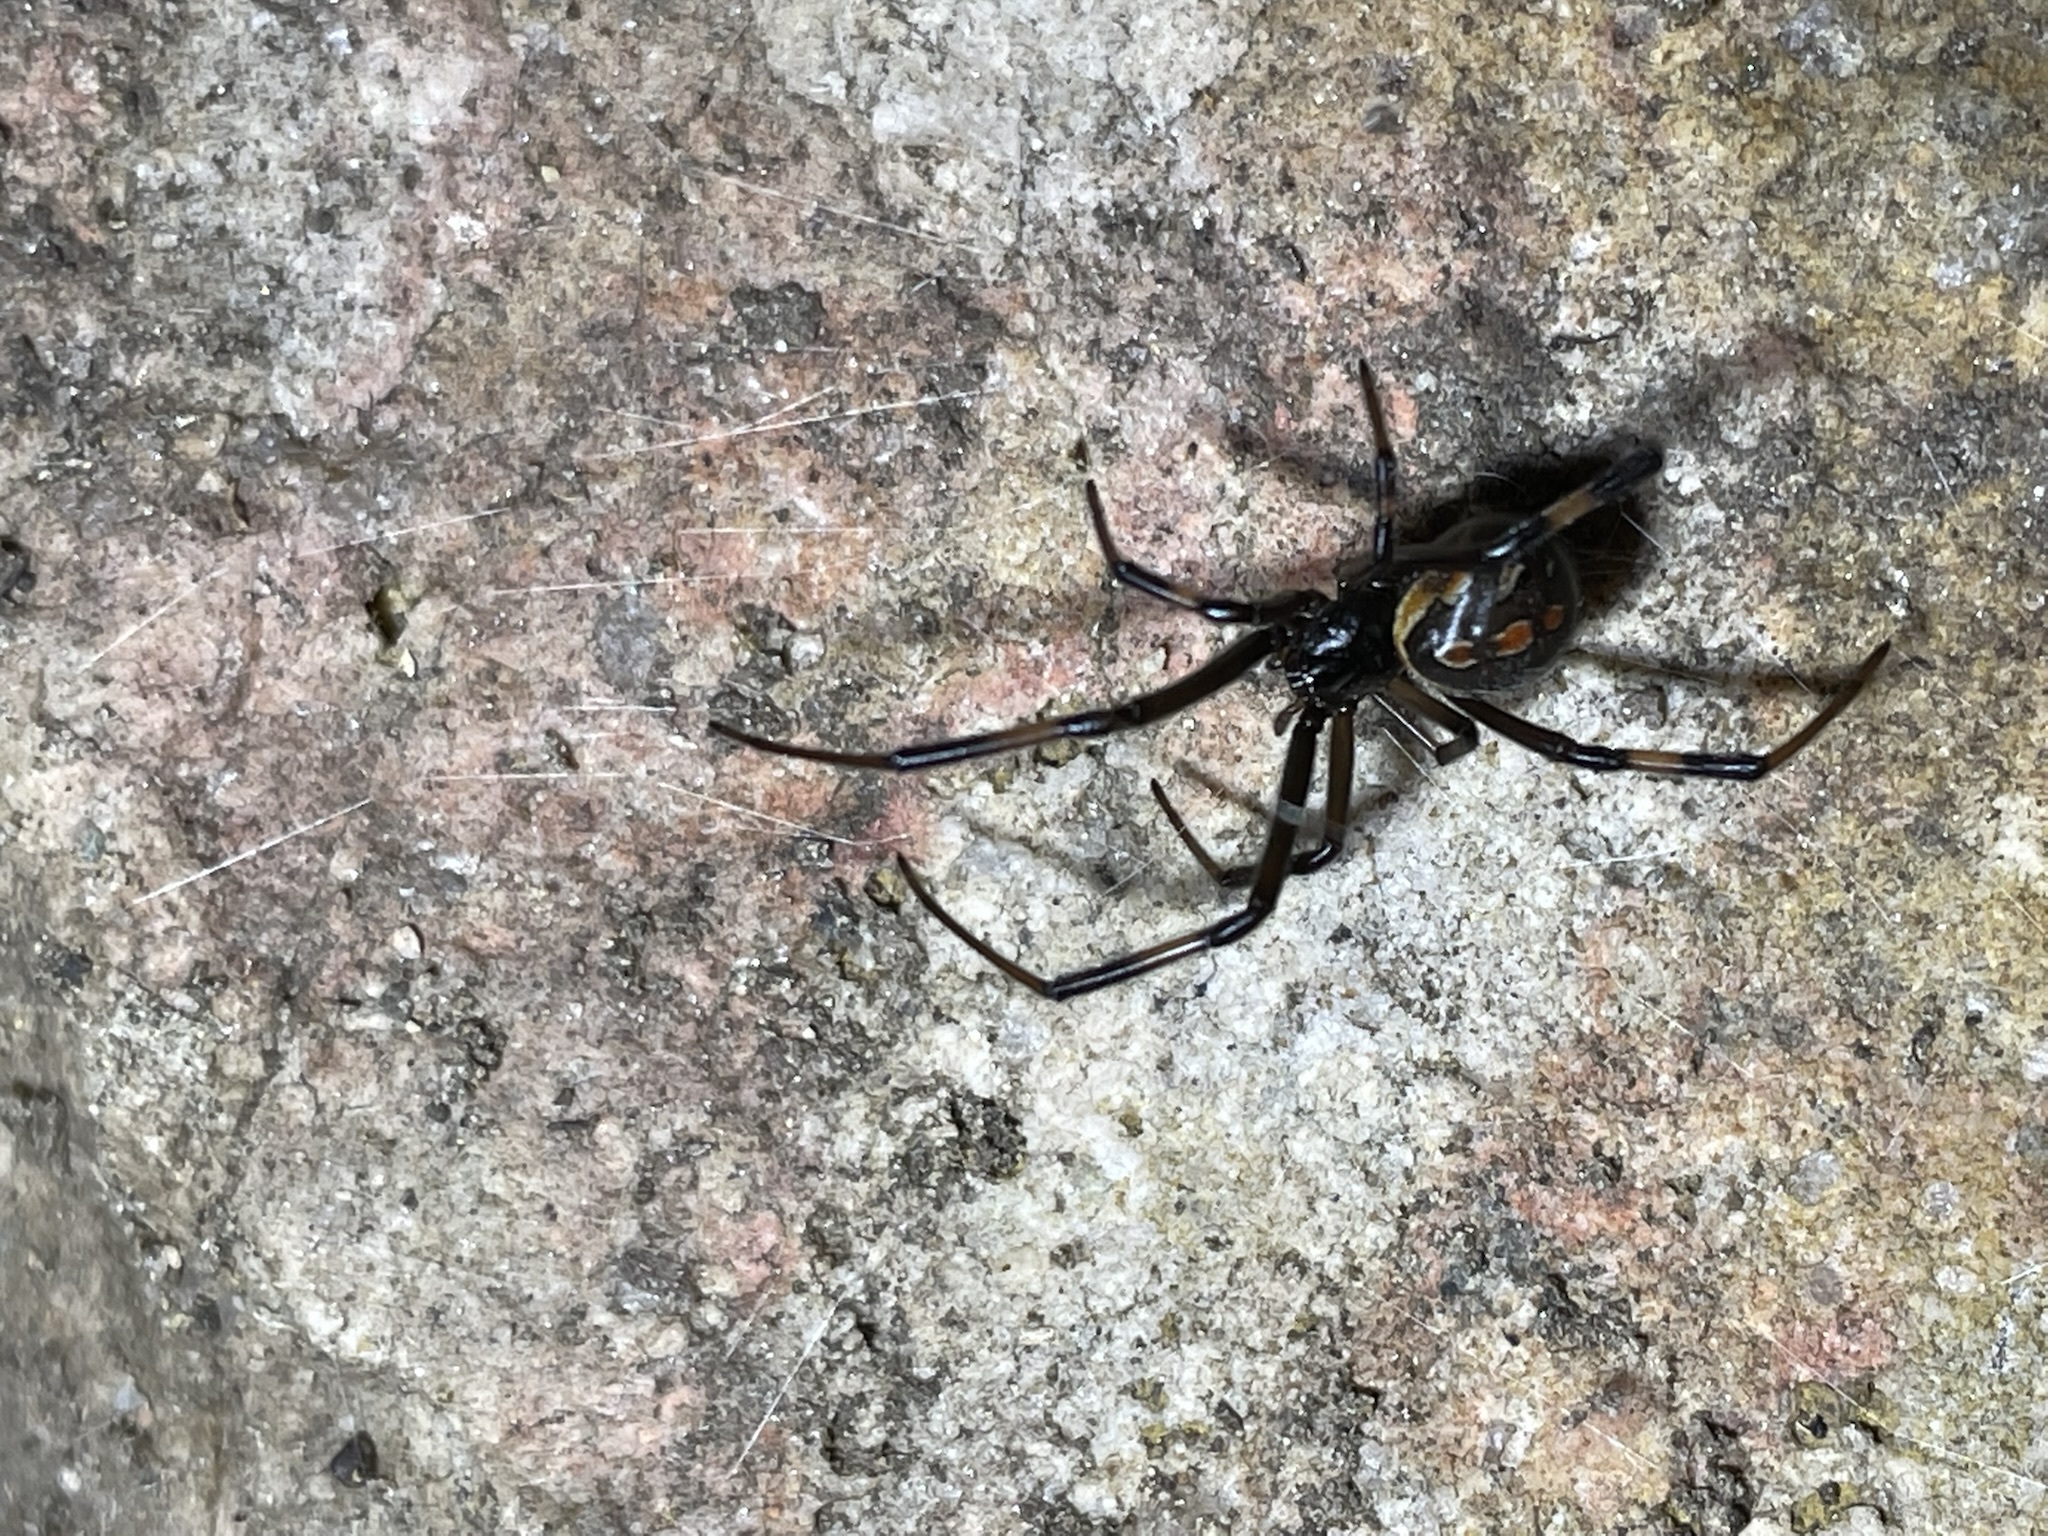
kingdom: Animalia
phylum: Arthropoda
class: Arachnida
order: Araneae
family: Theridiidae
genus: Latrodectus
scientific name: Latrodectus hesperus
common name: Western black widow
